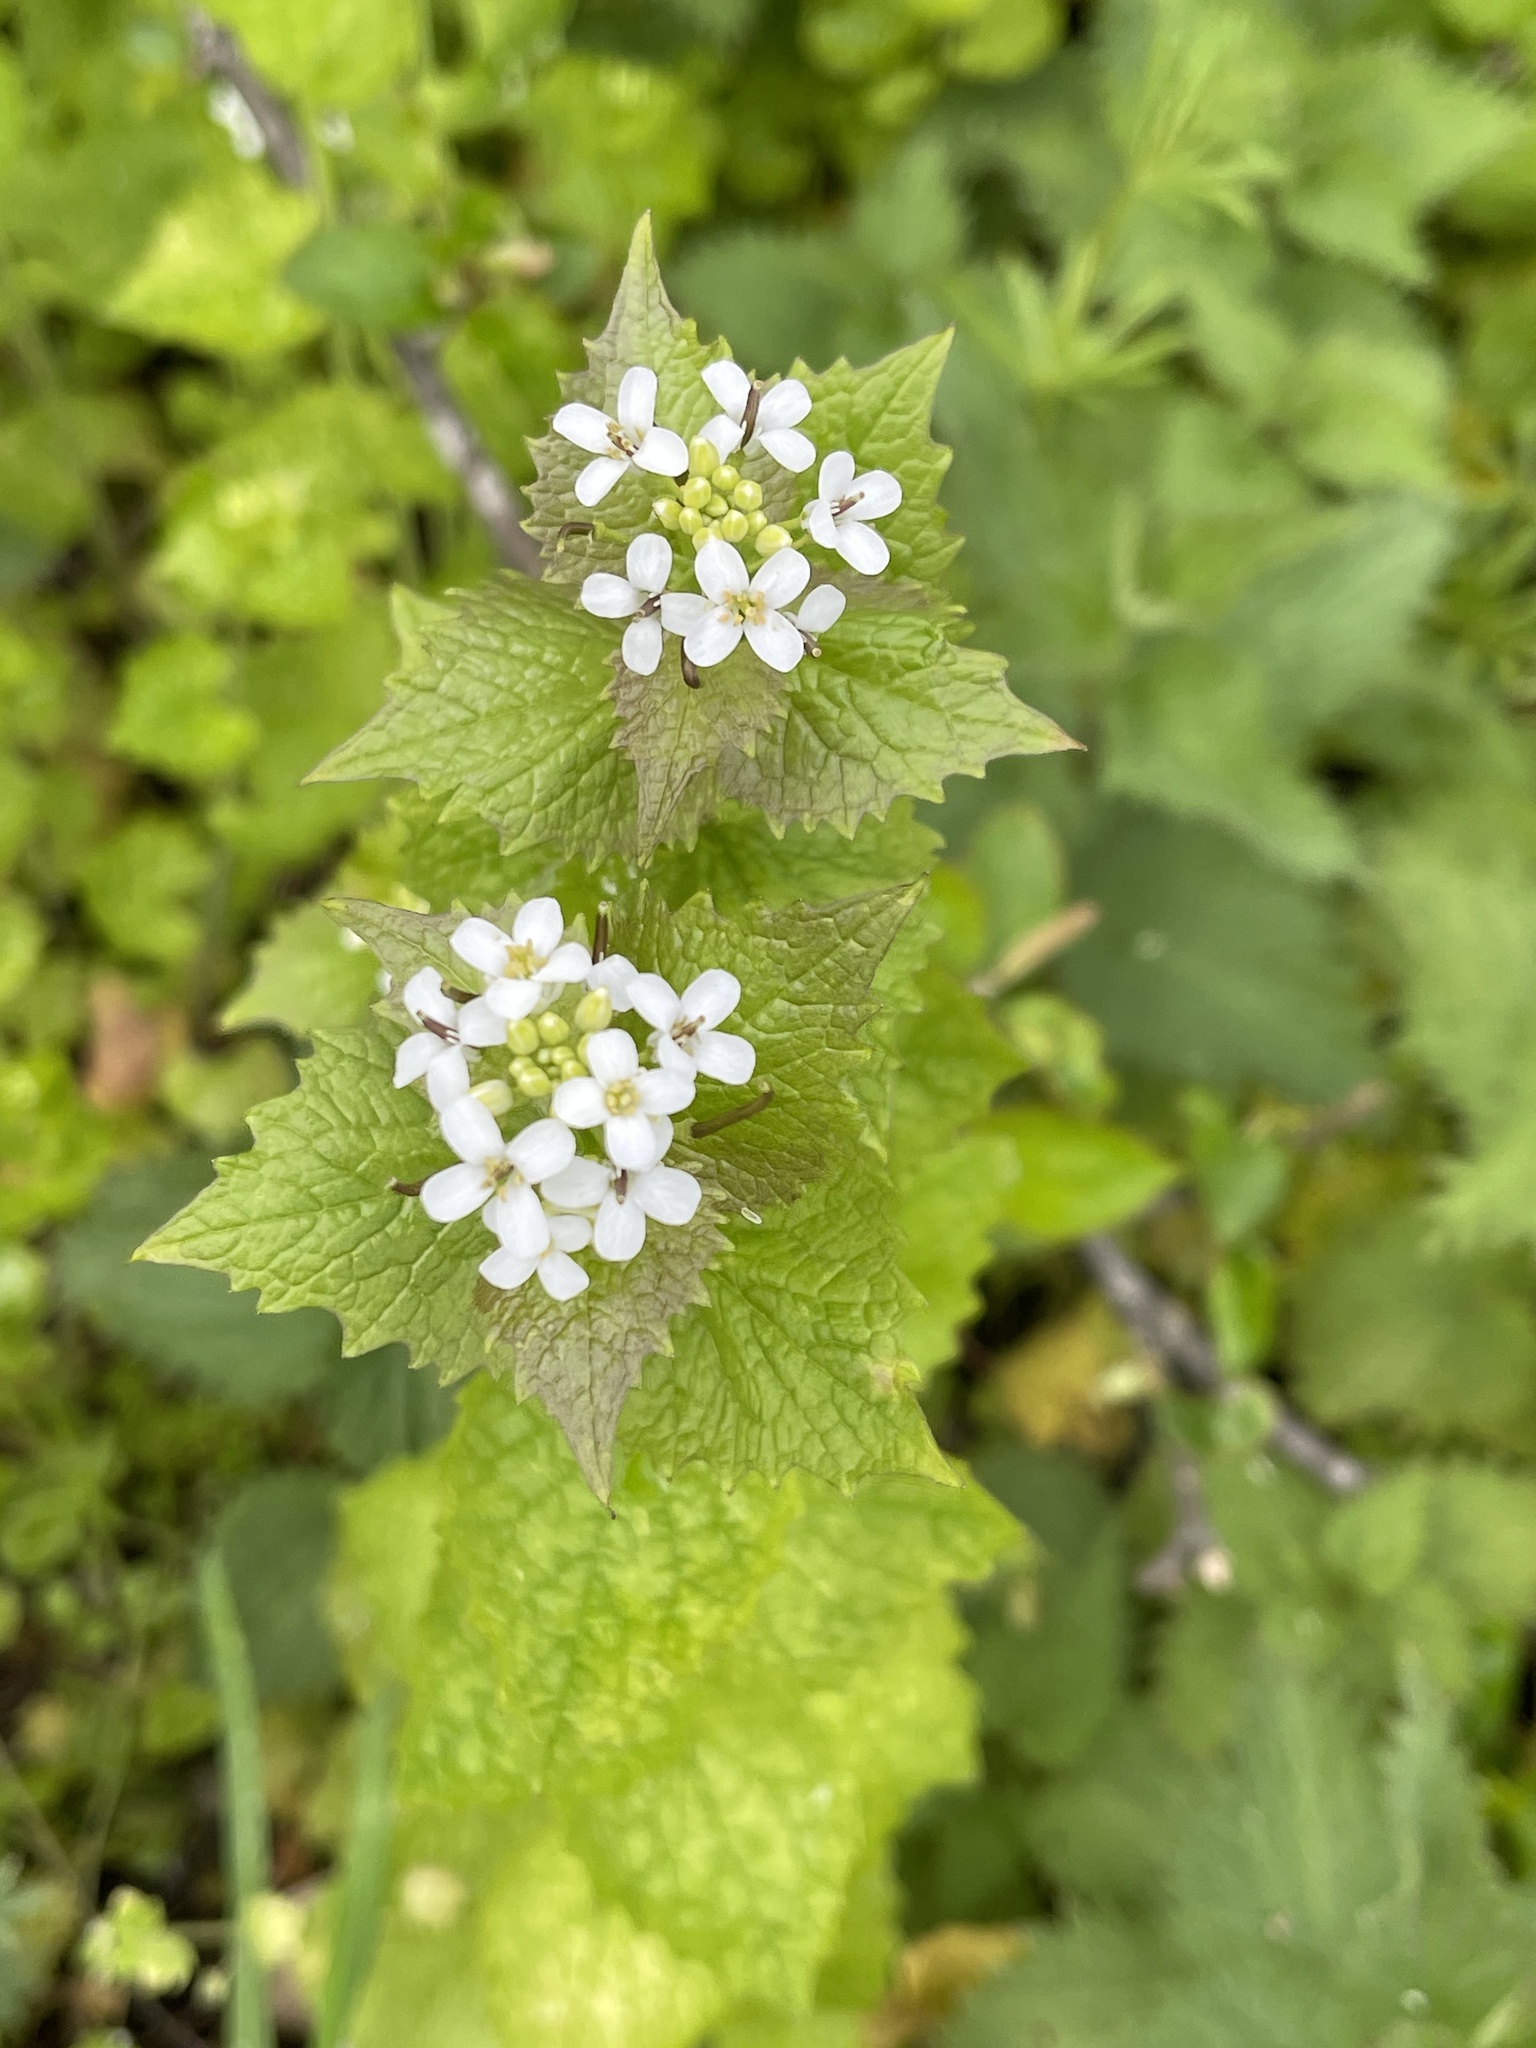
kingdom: Plantae
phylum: Tracheophyta
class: Magnoliopsida
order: Brassicales
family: Brassicaceae
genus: Alliaria
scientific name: Alliaria petiolata
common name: Garlic mustard
